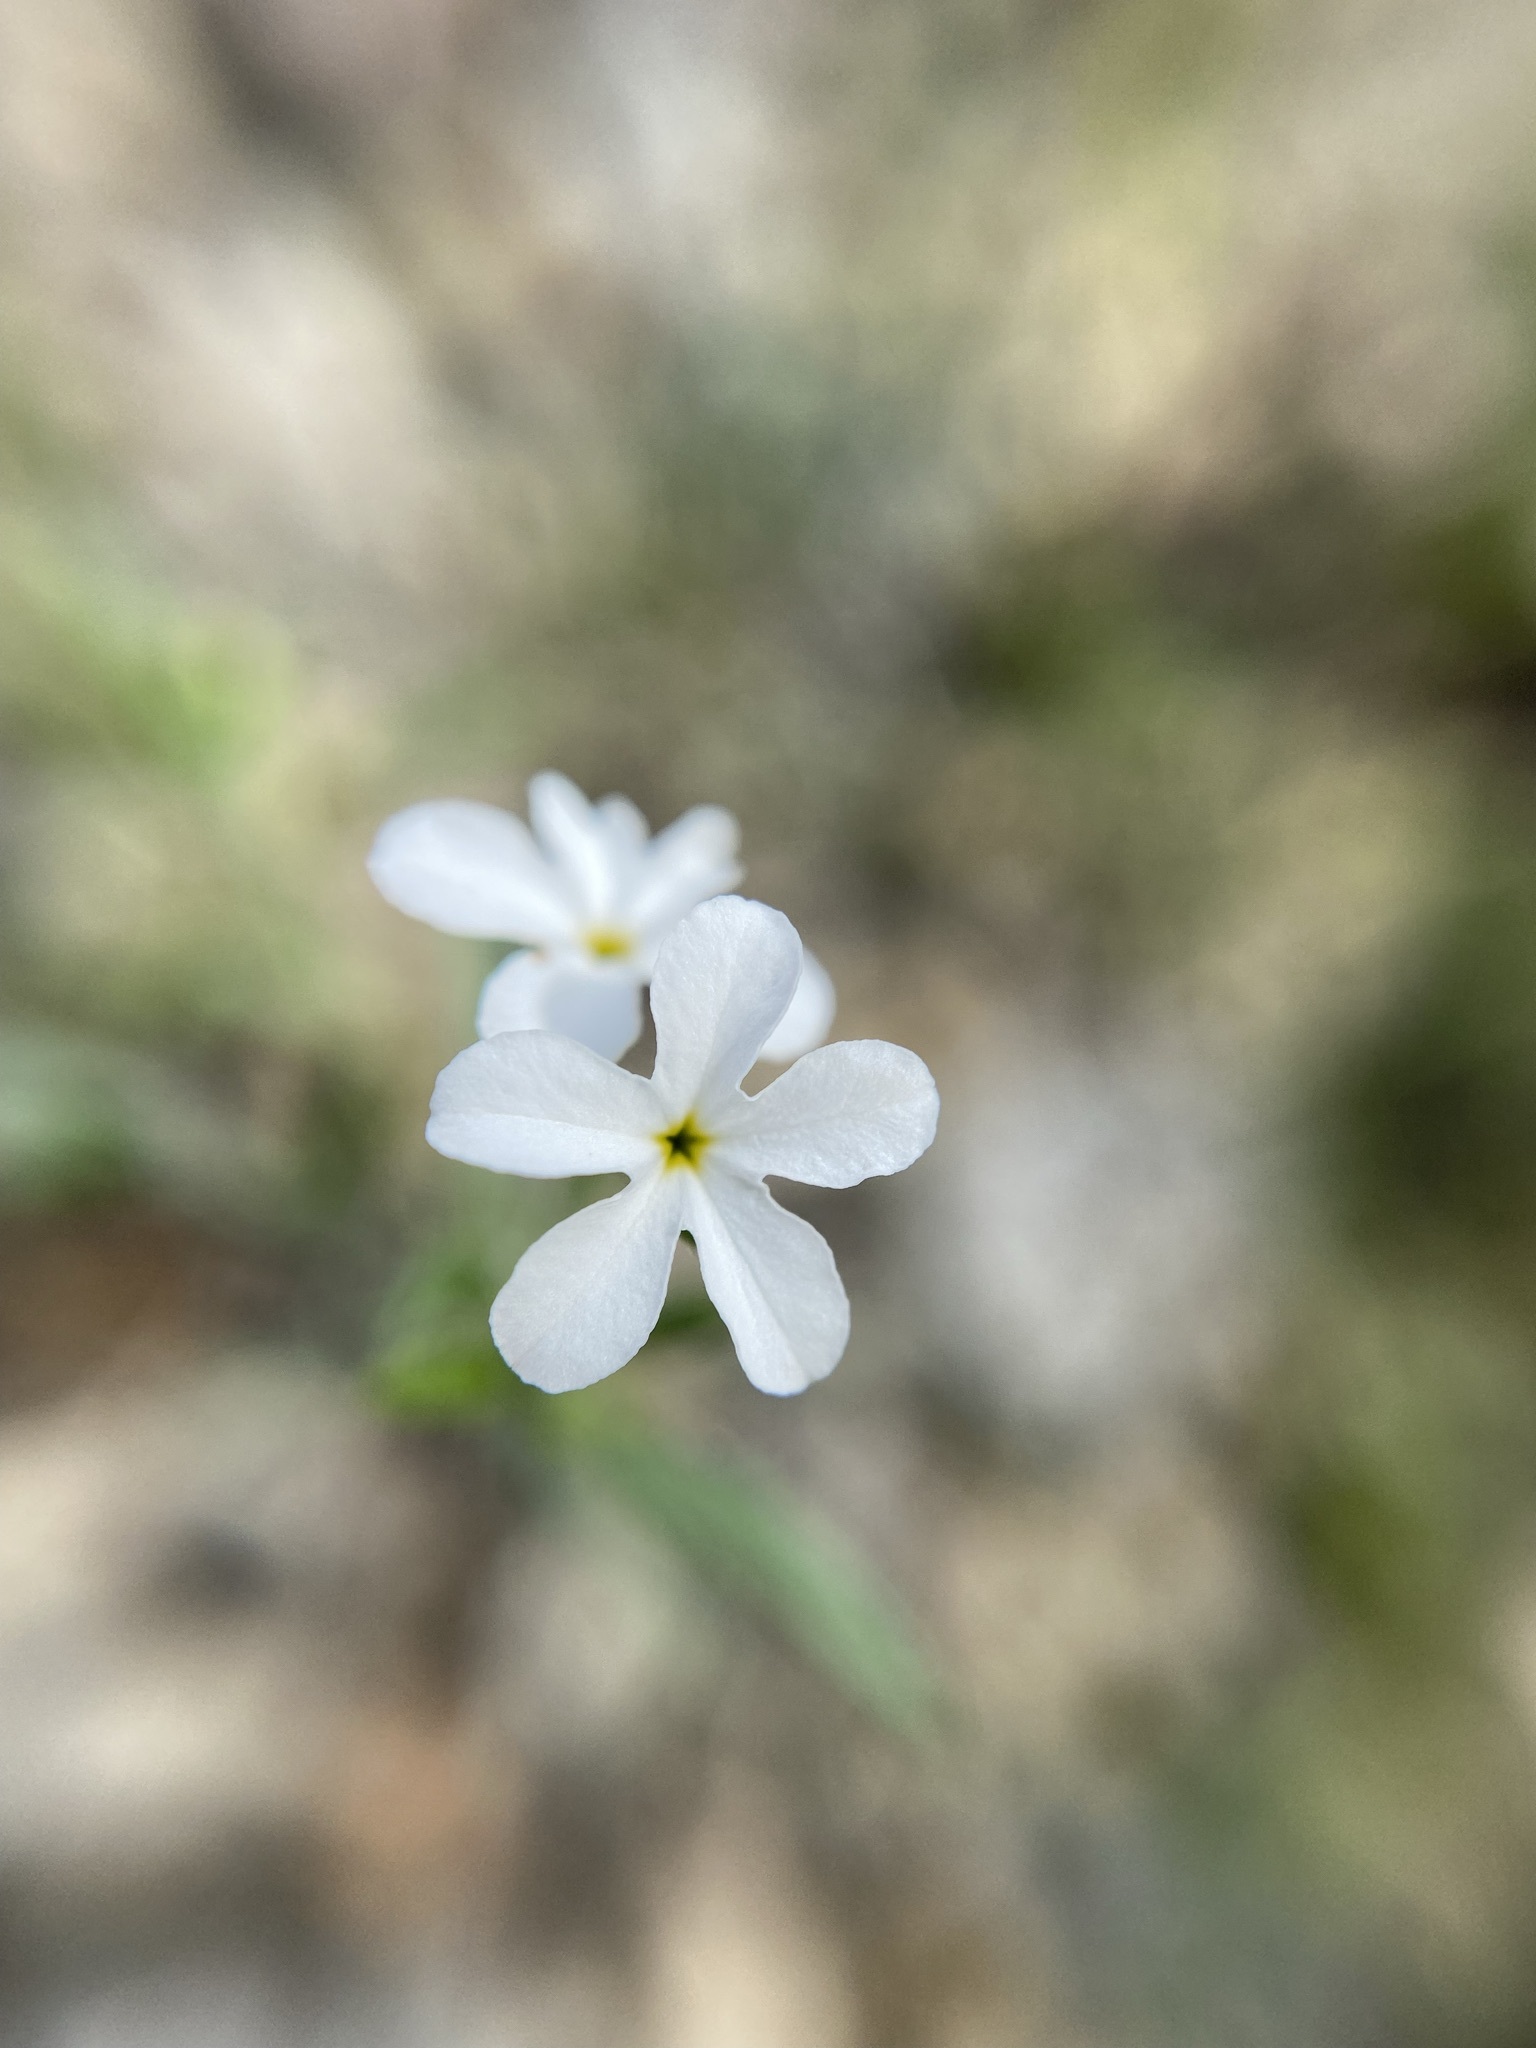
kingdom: Plantae
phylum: Tracheophyta
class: Magnoliopsida
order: Boraginales
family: Heliotropiaceae
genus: Euploca
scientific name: Euploca tenella
